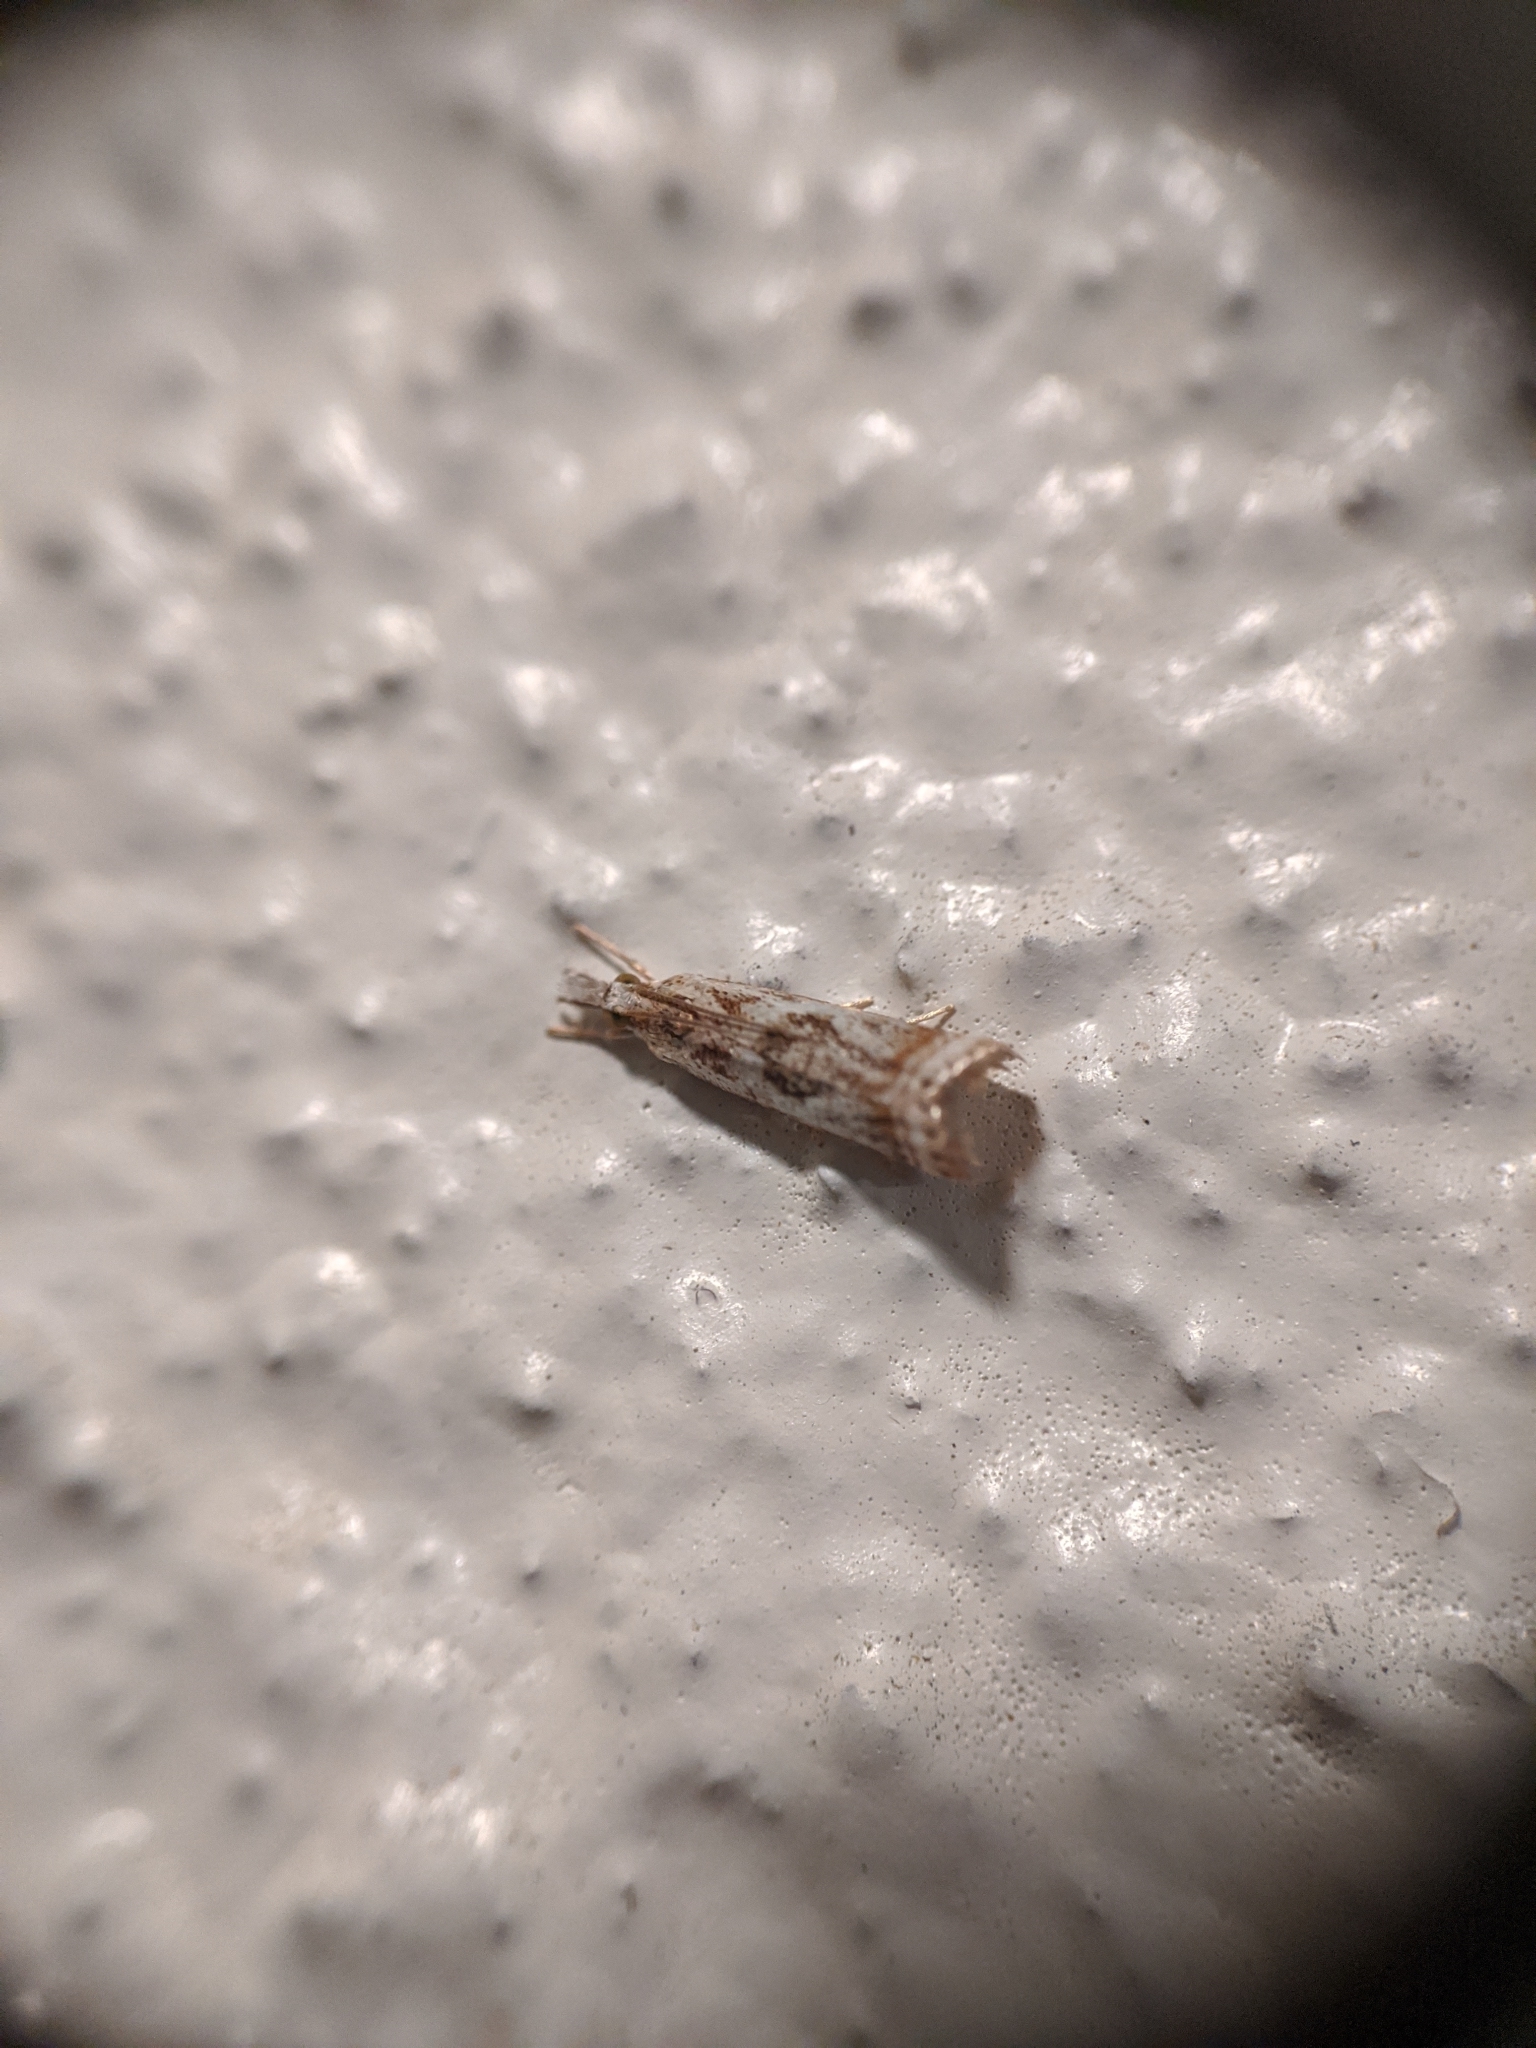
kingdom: Animalia
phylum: Arthropoda
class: Insecta
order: Lepidoptera
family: Crambidae
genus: Microcrambus
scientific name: Microcrambus elegans
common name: Elegant grass-veneer
